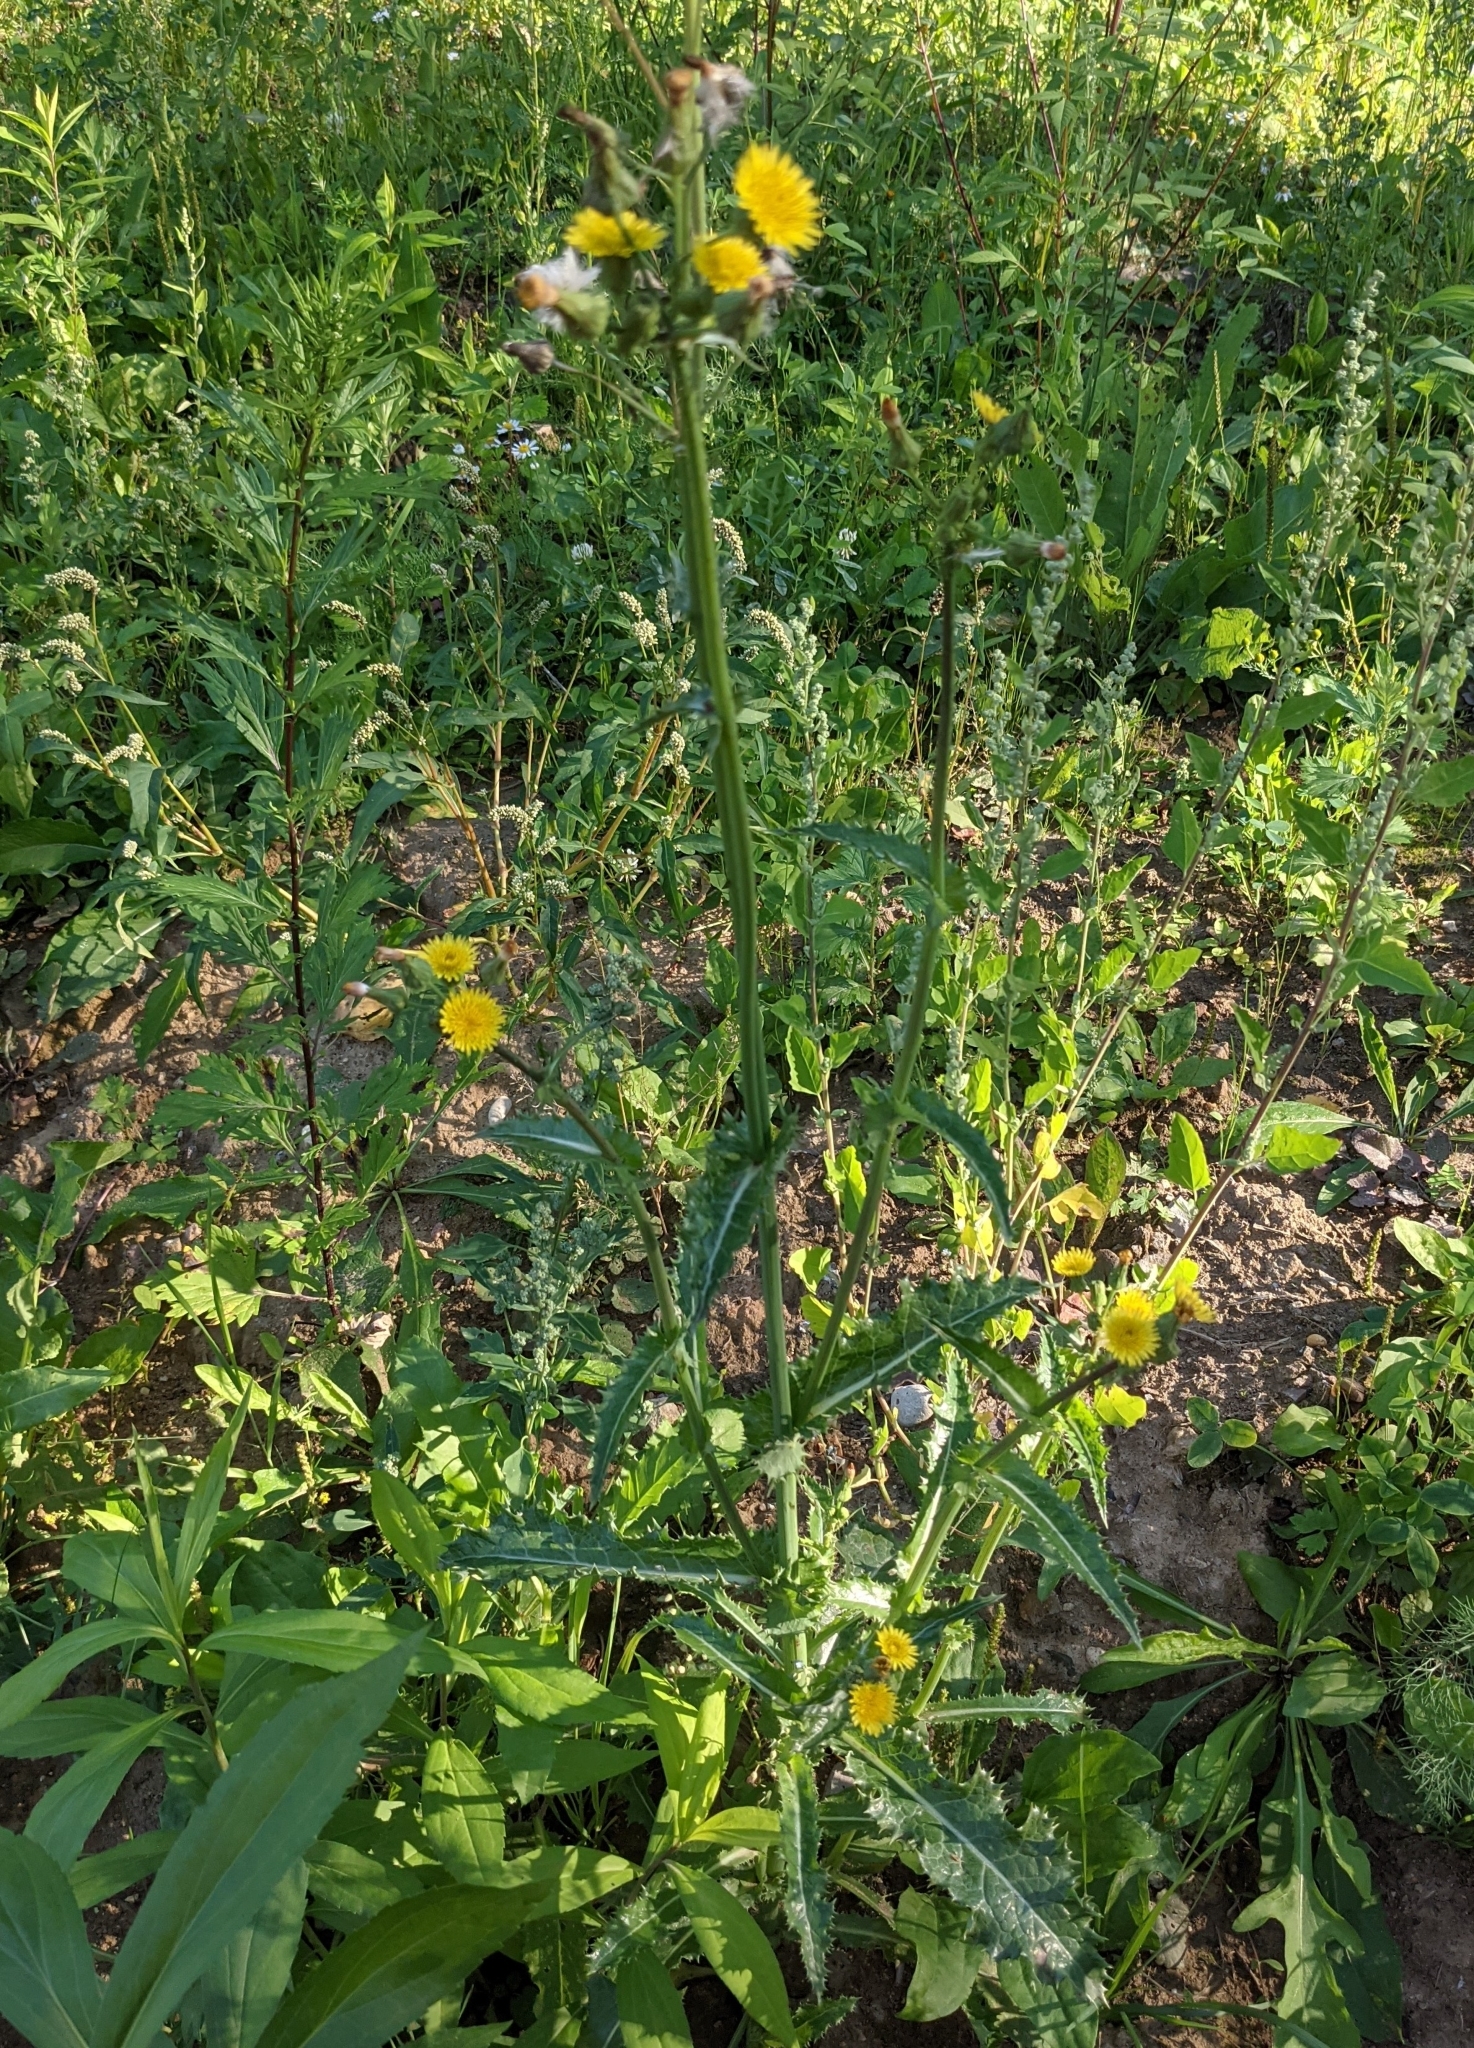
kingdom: Plantae
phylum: Tracheophyta
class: Magnoliopsida
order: Asterales
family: Asteraceae
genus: Sonchus
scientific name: Sonchus asper
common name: Prickly sow-thistle
